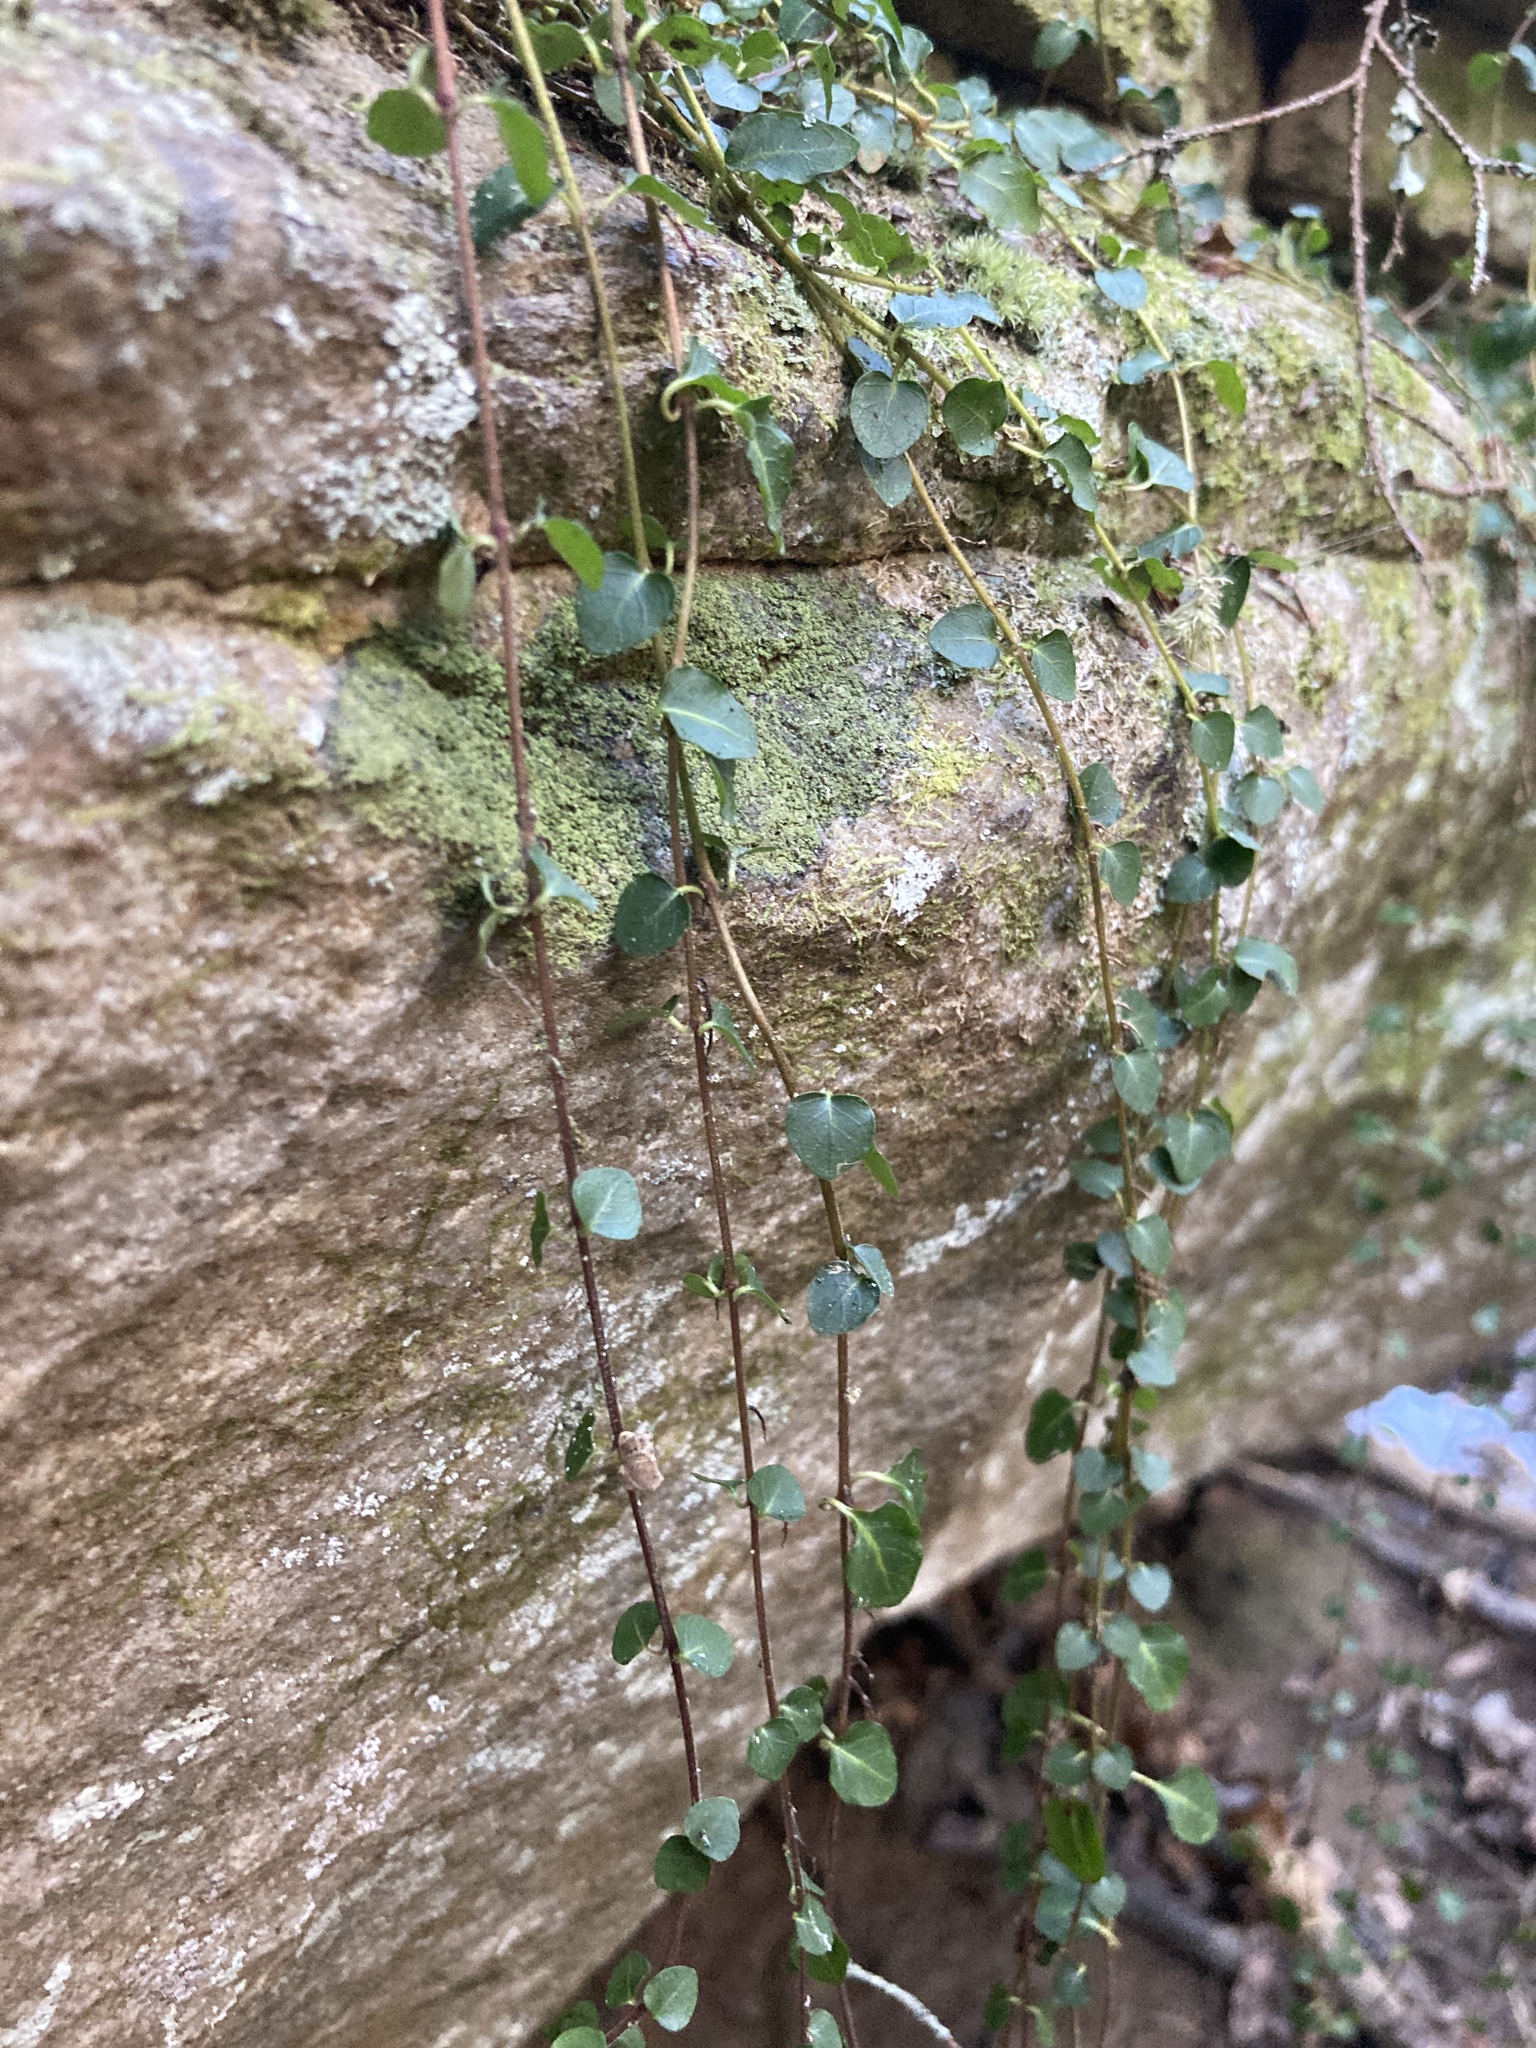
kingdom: Plantae
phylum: Tracheophyta
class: Magnoliopsida
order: Gentianales
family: Rubiaceae
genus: Mitchella
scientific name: Mitchella repens
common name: Partridge-berry
